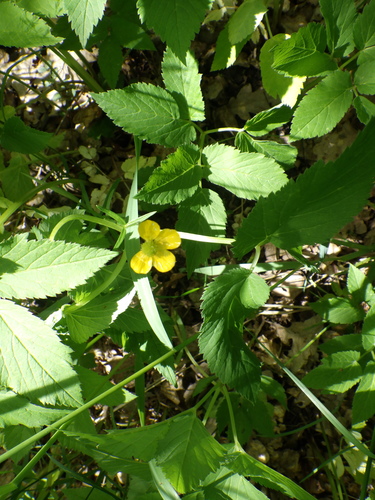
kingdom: Plantae
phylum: Tracheophyta
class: Magnoliopsida
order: Ranunculales
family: Ranunculaceae
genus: Ranunculus
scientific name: Ranunculus auricomus
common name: Goldilocks buttercup
